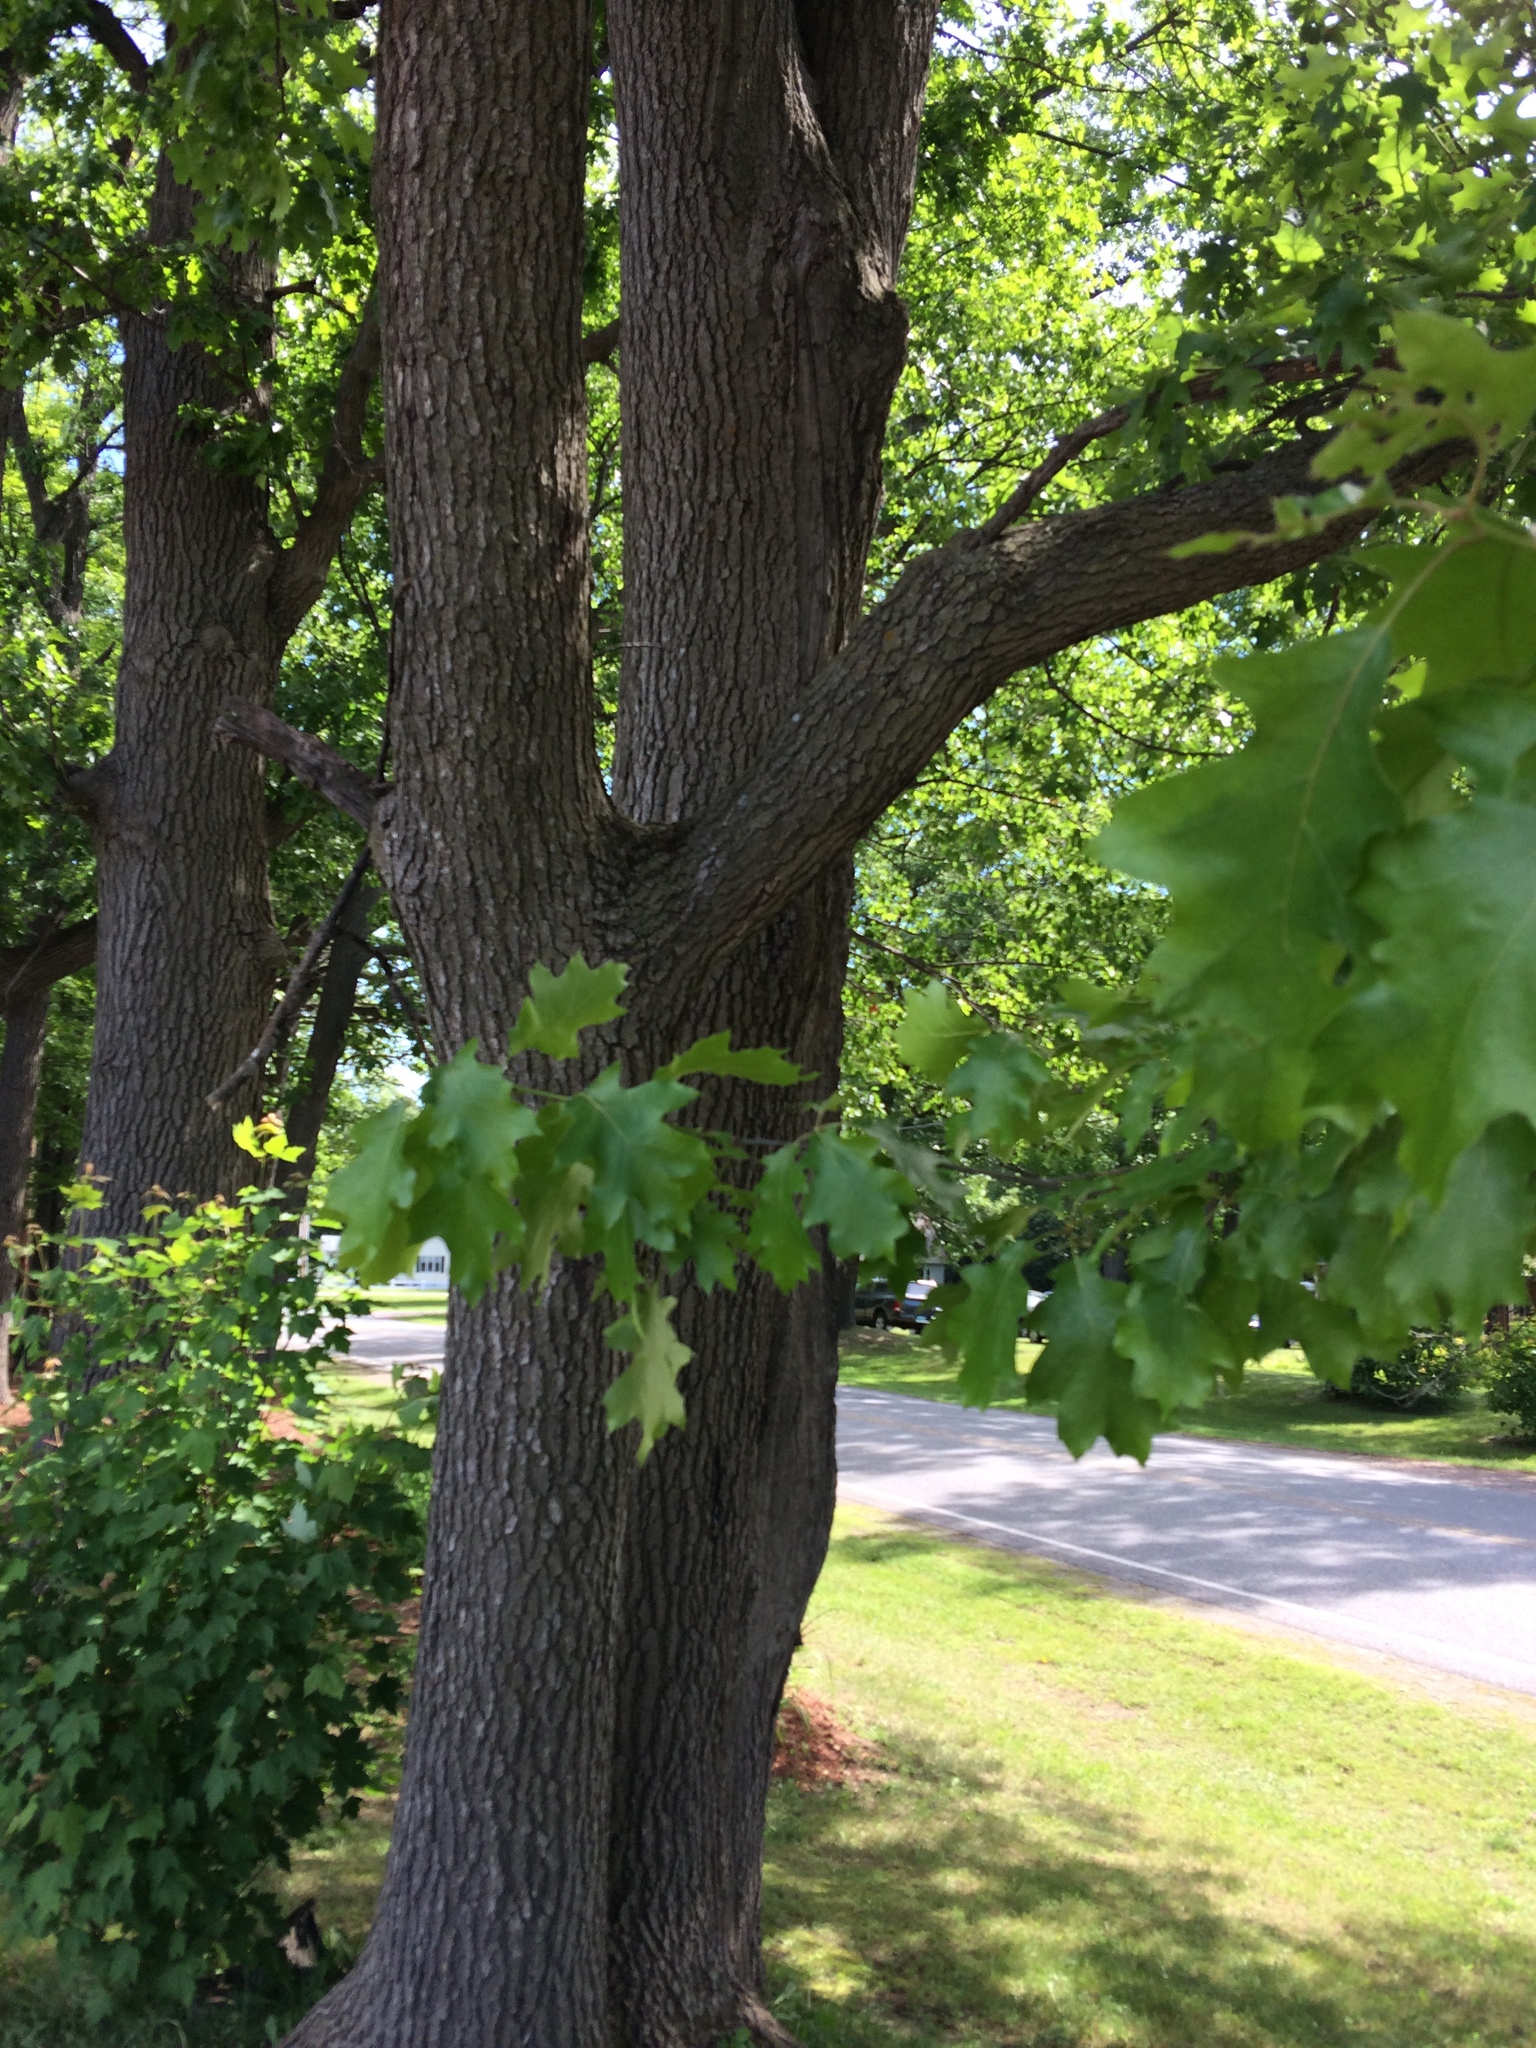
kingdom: Plantae
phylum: Tracheophyta
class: Magnoliopsida
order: Fagales
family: Fagaceae
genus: Quercus
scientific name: Quercus velutina
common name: Black oak
